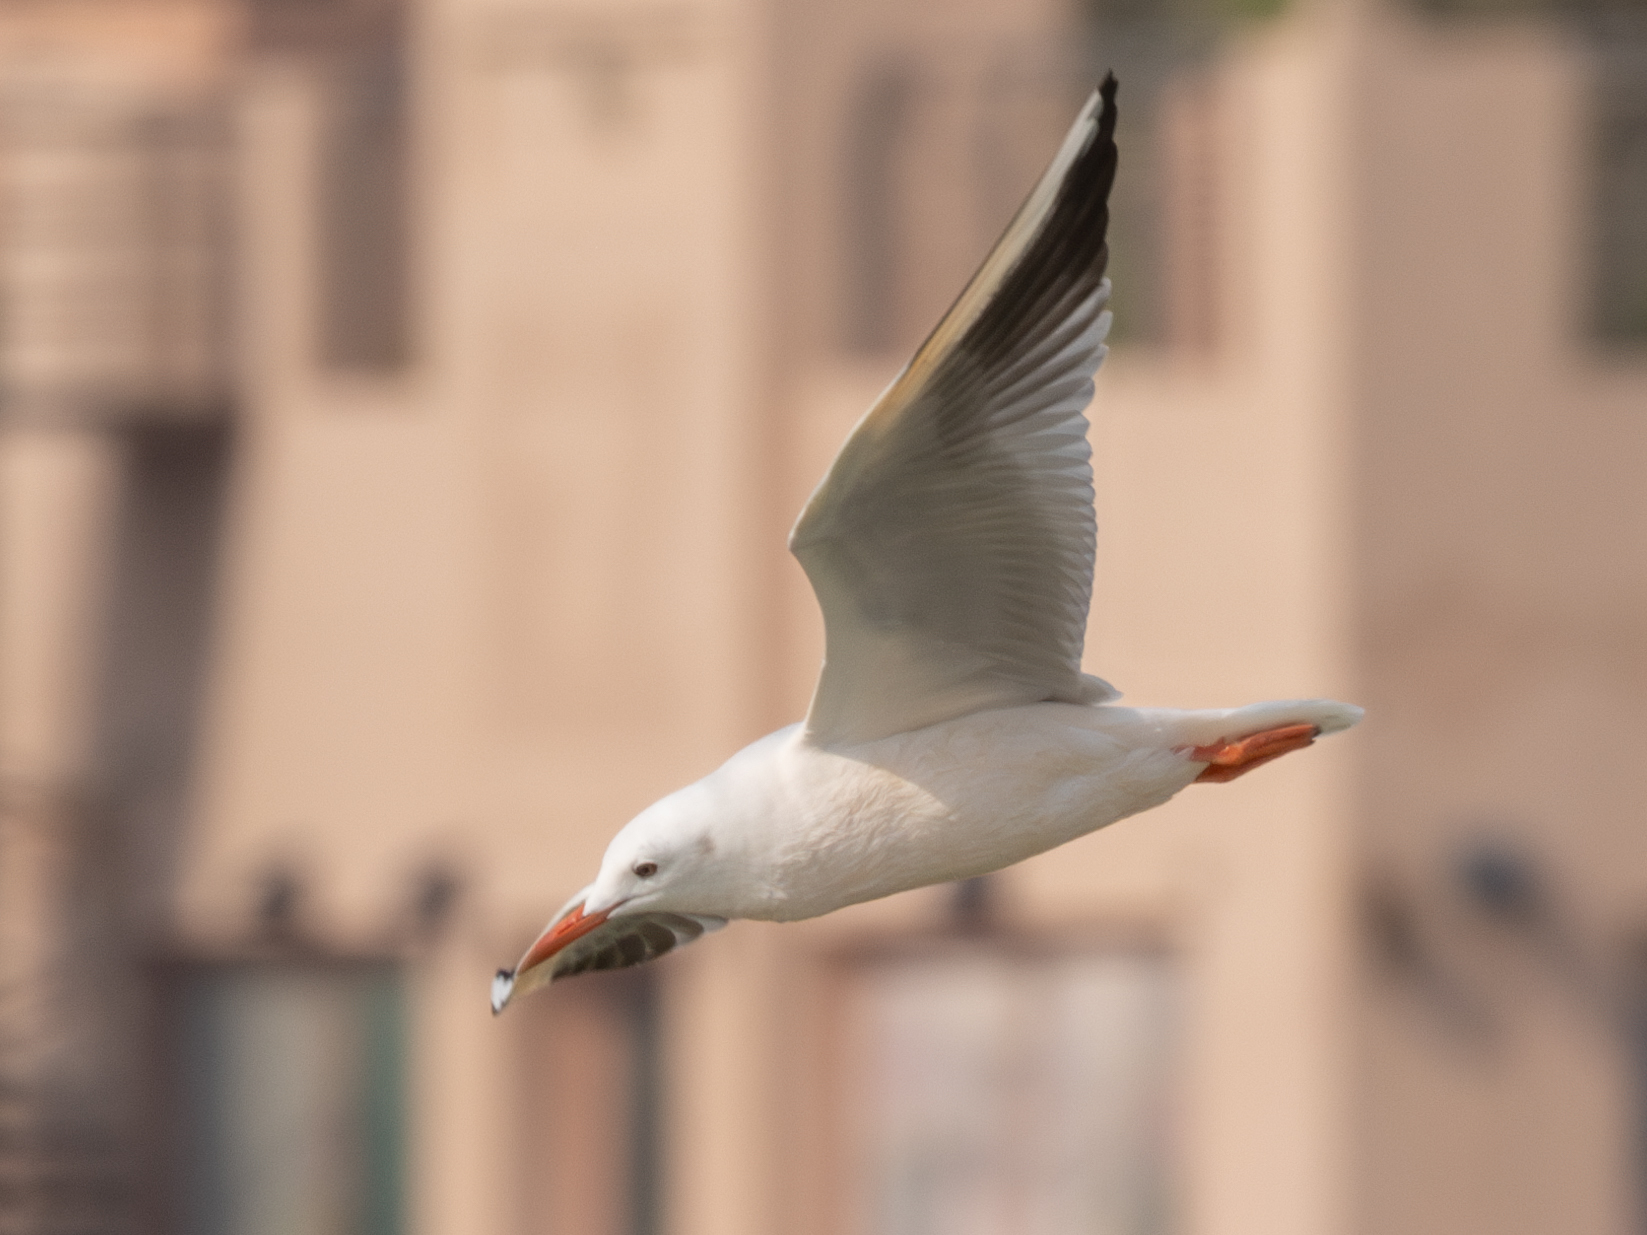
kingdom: Animalia
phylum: Chordata
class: Aves
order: Charadriiformes
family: Laridae
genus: Chroicocephalus
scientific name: Chroicocephalus genei
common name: Slender-billed gull
